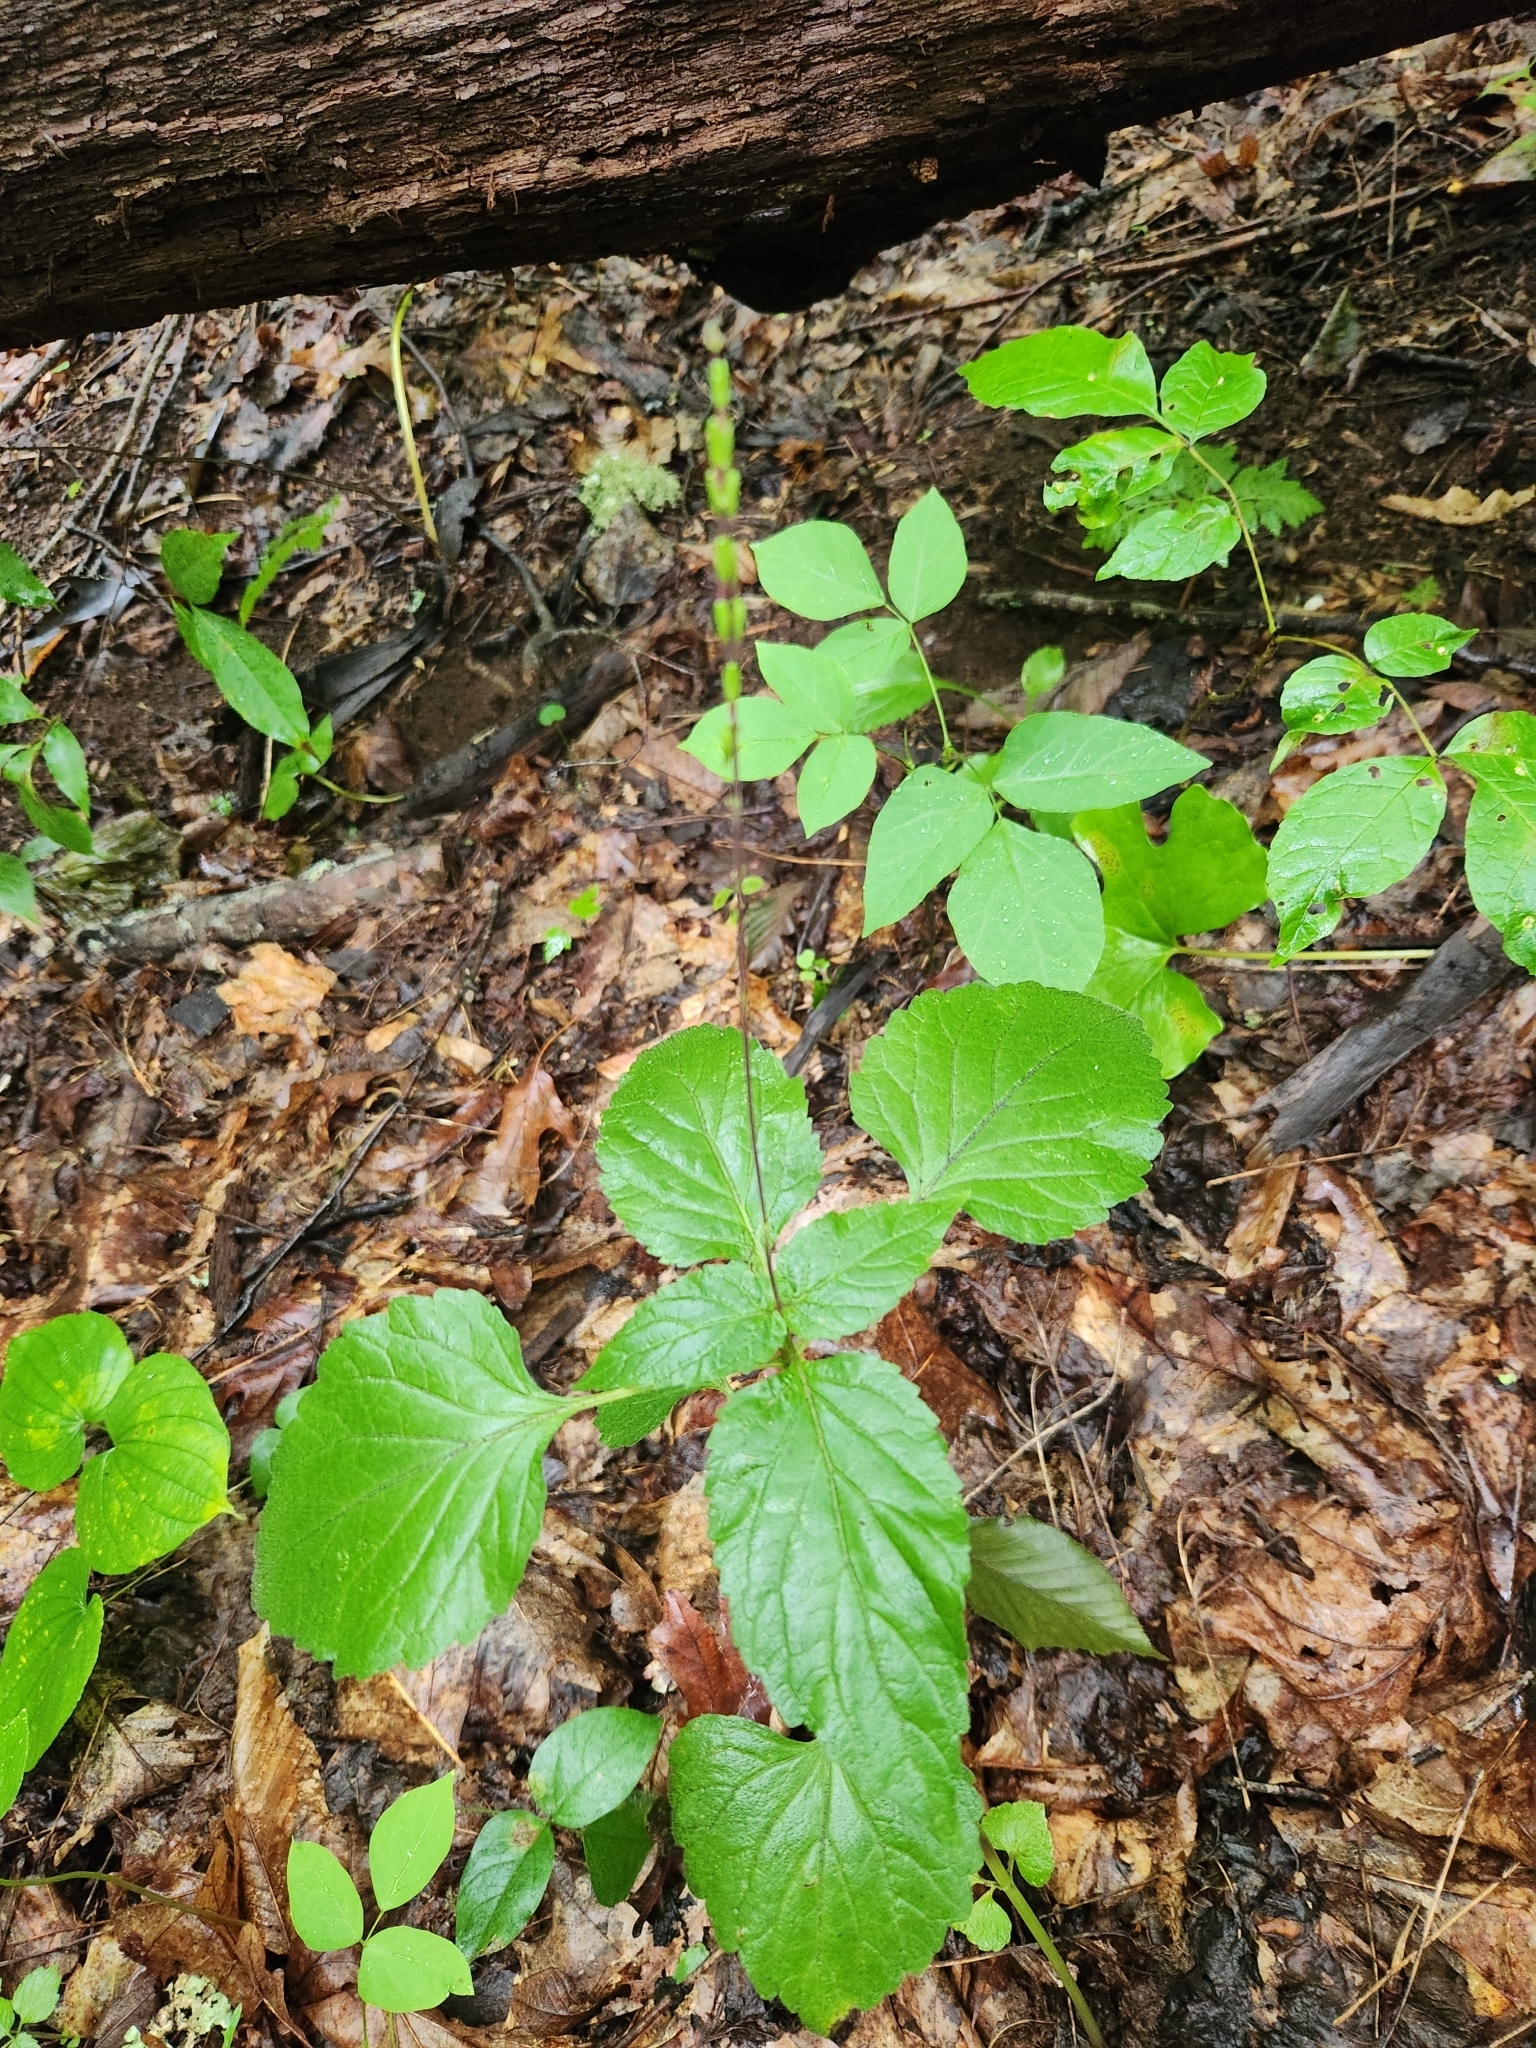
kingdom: Plantae
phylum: Tracheophyta
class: Magnoliopsida
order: Lamiales
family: Phrymaceae
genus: Phryma
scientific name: Phryma leptostachya
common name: American lopseed
